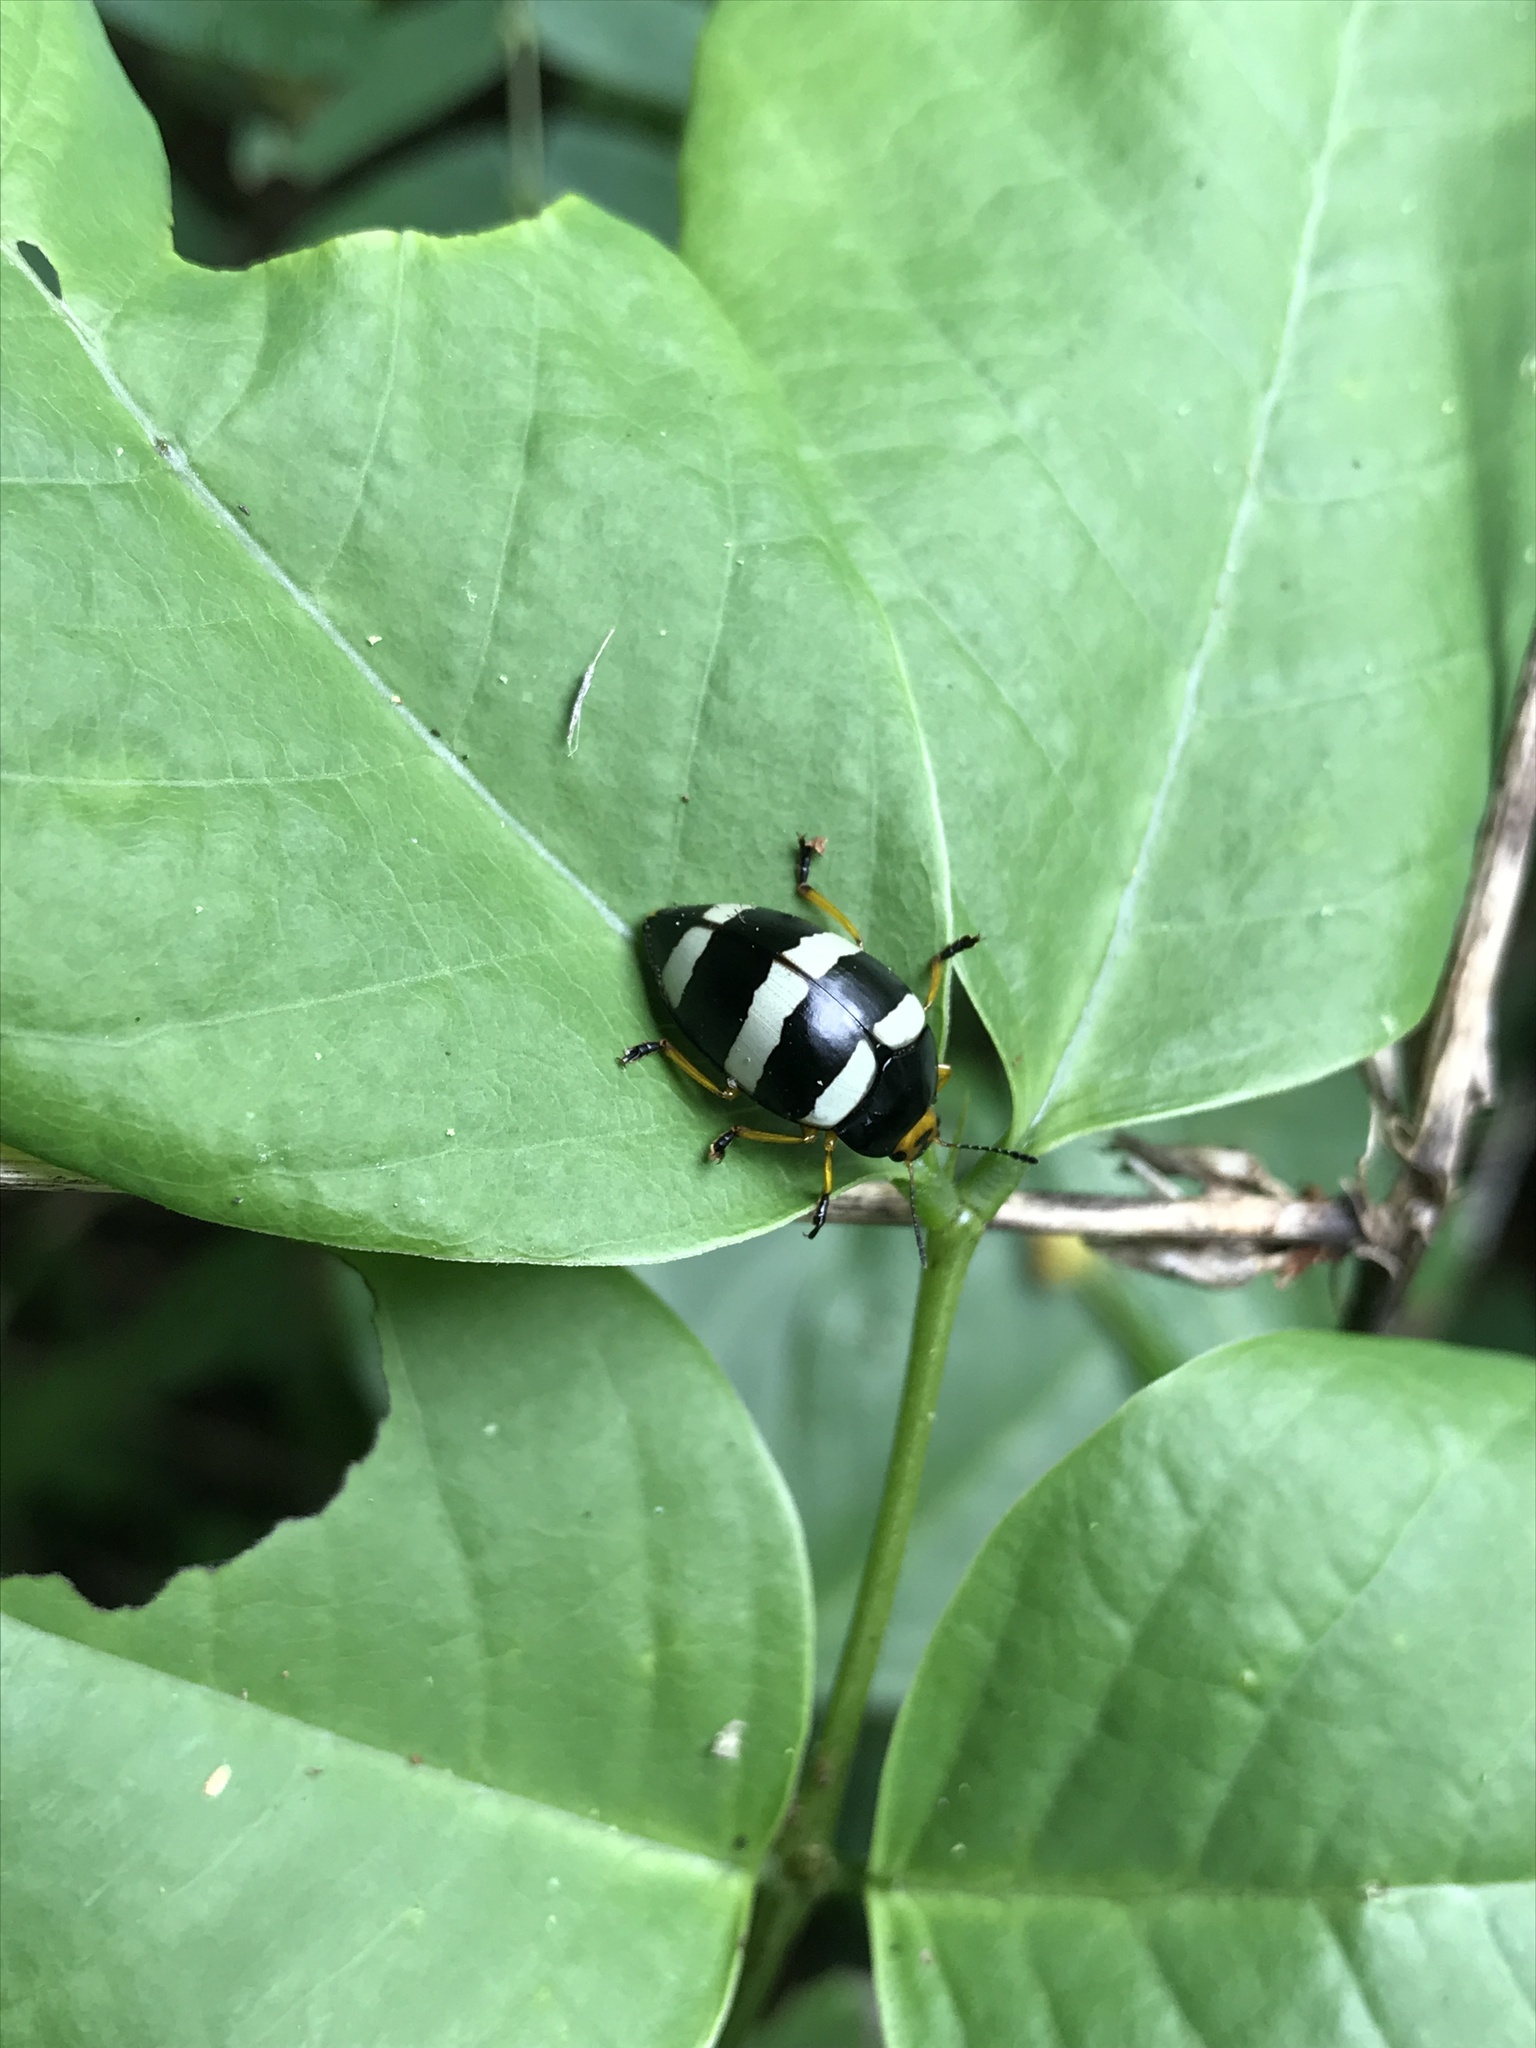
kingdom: Animalia
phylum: Arthropoda
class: Insecta
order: Coleoptera
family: Erotylidae
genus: Iphiclus
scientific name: Iphiclus
